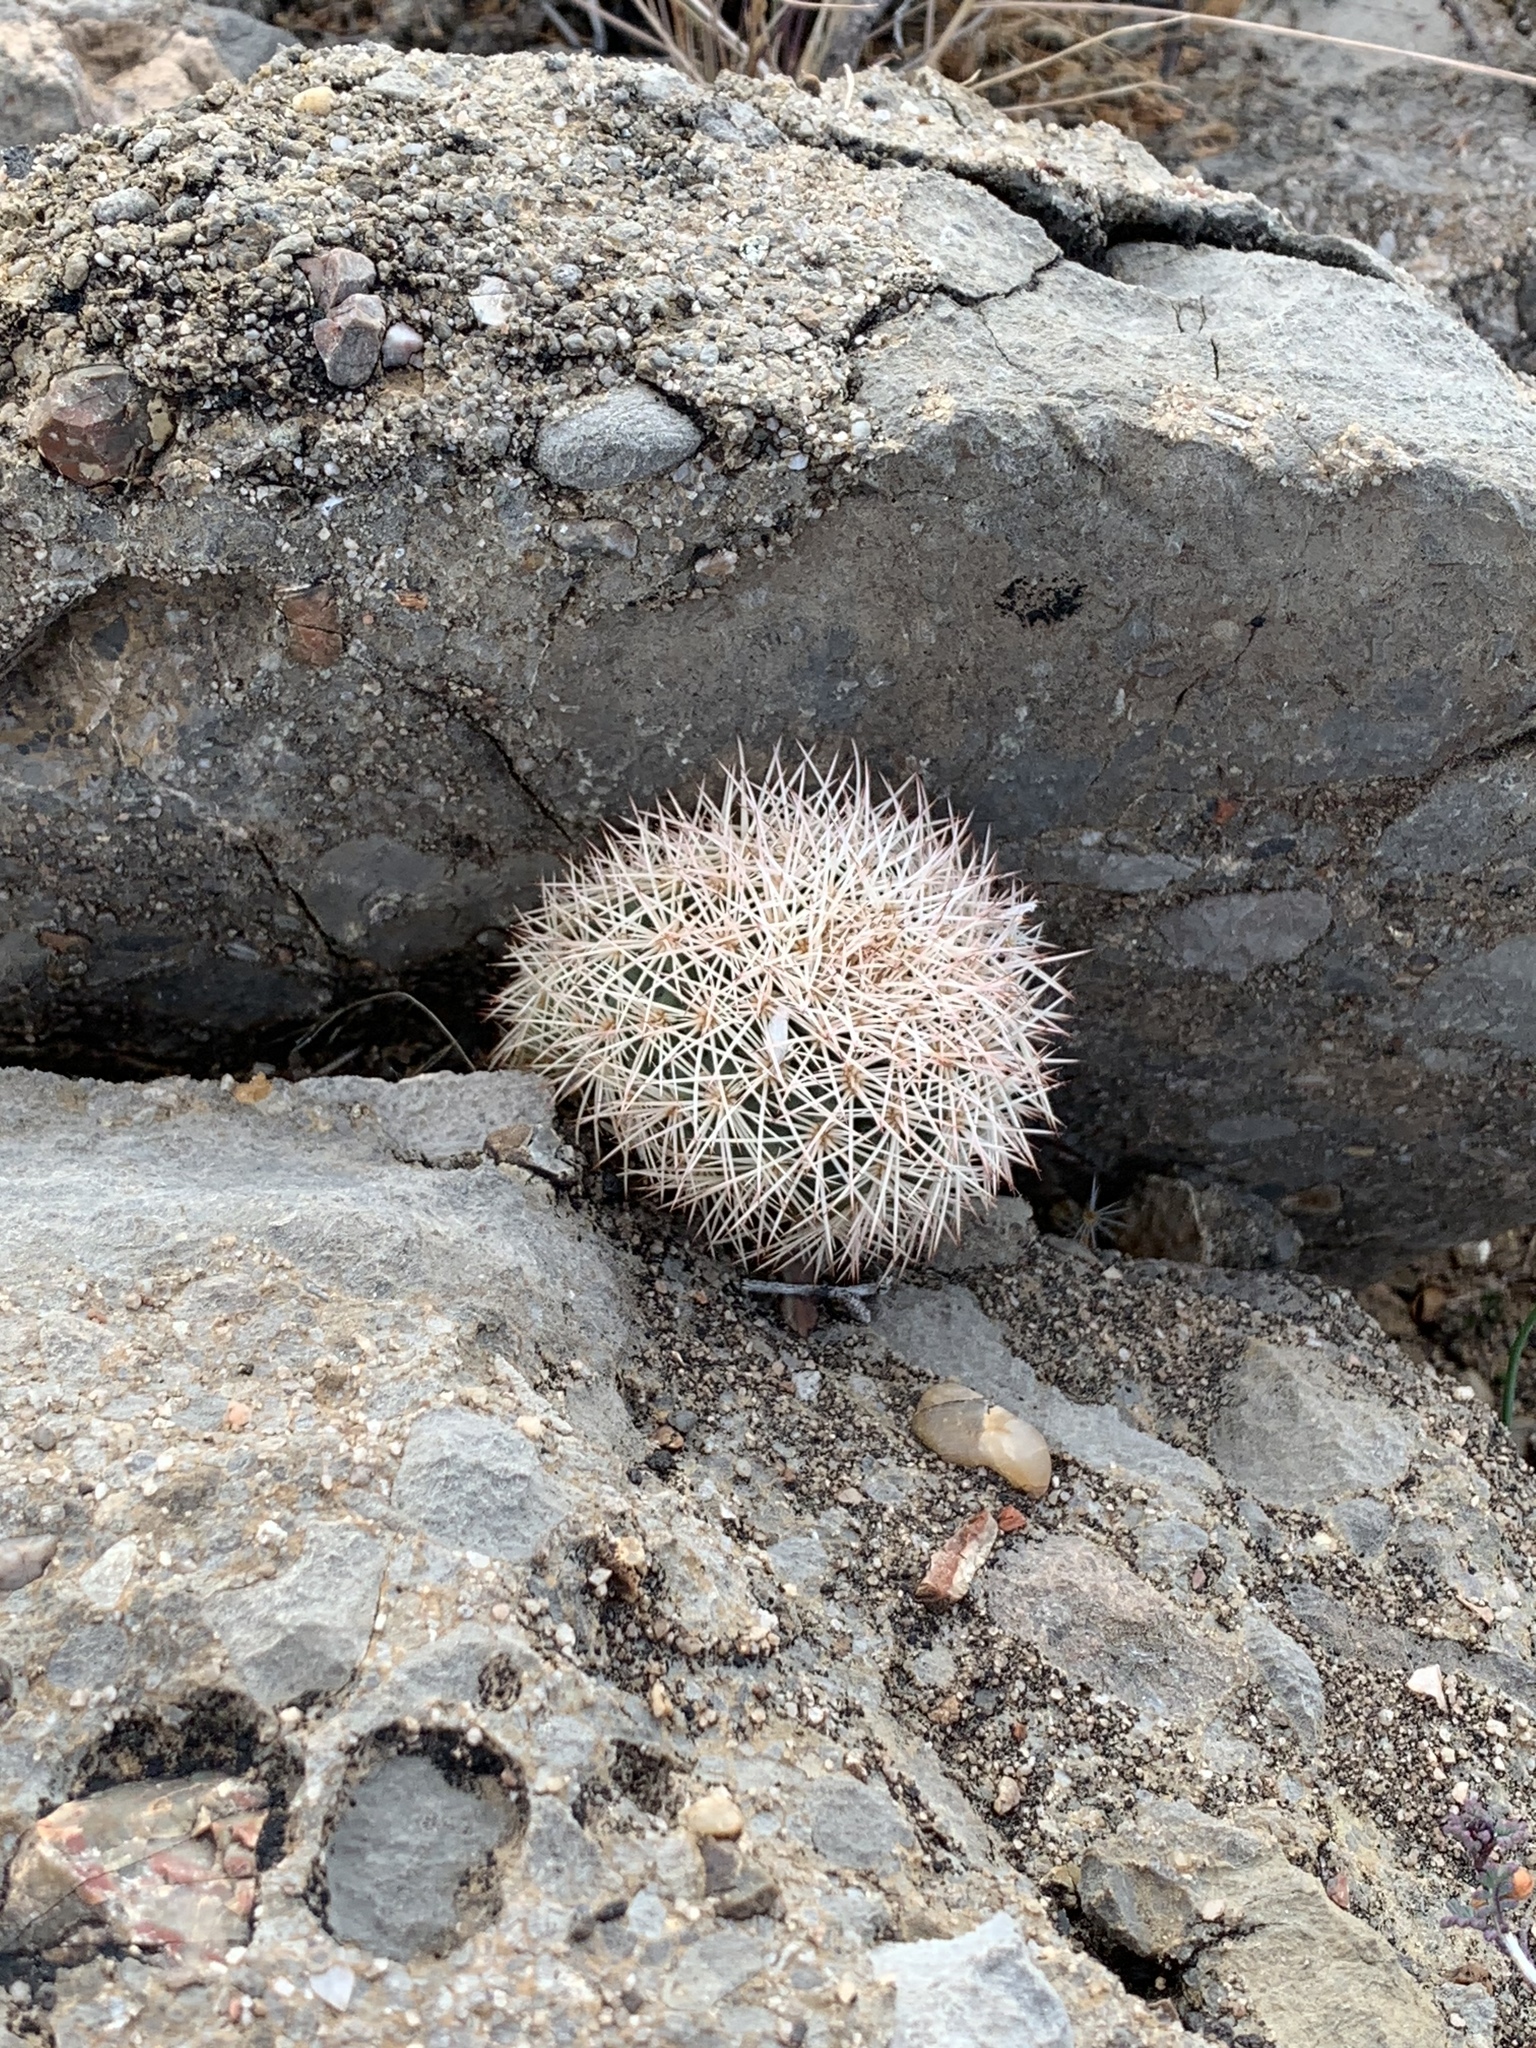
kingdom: Plantae
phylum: Tracheophyta
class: Magnoliopsida
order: Caryophyllales
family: Cactaceae
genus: Echinocereus
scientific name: Echinocereus dasyacanthus
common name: Spiny hedgehog cactus
